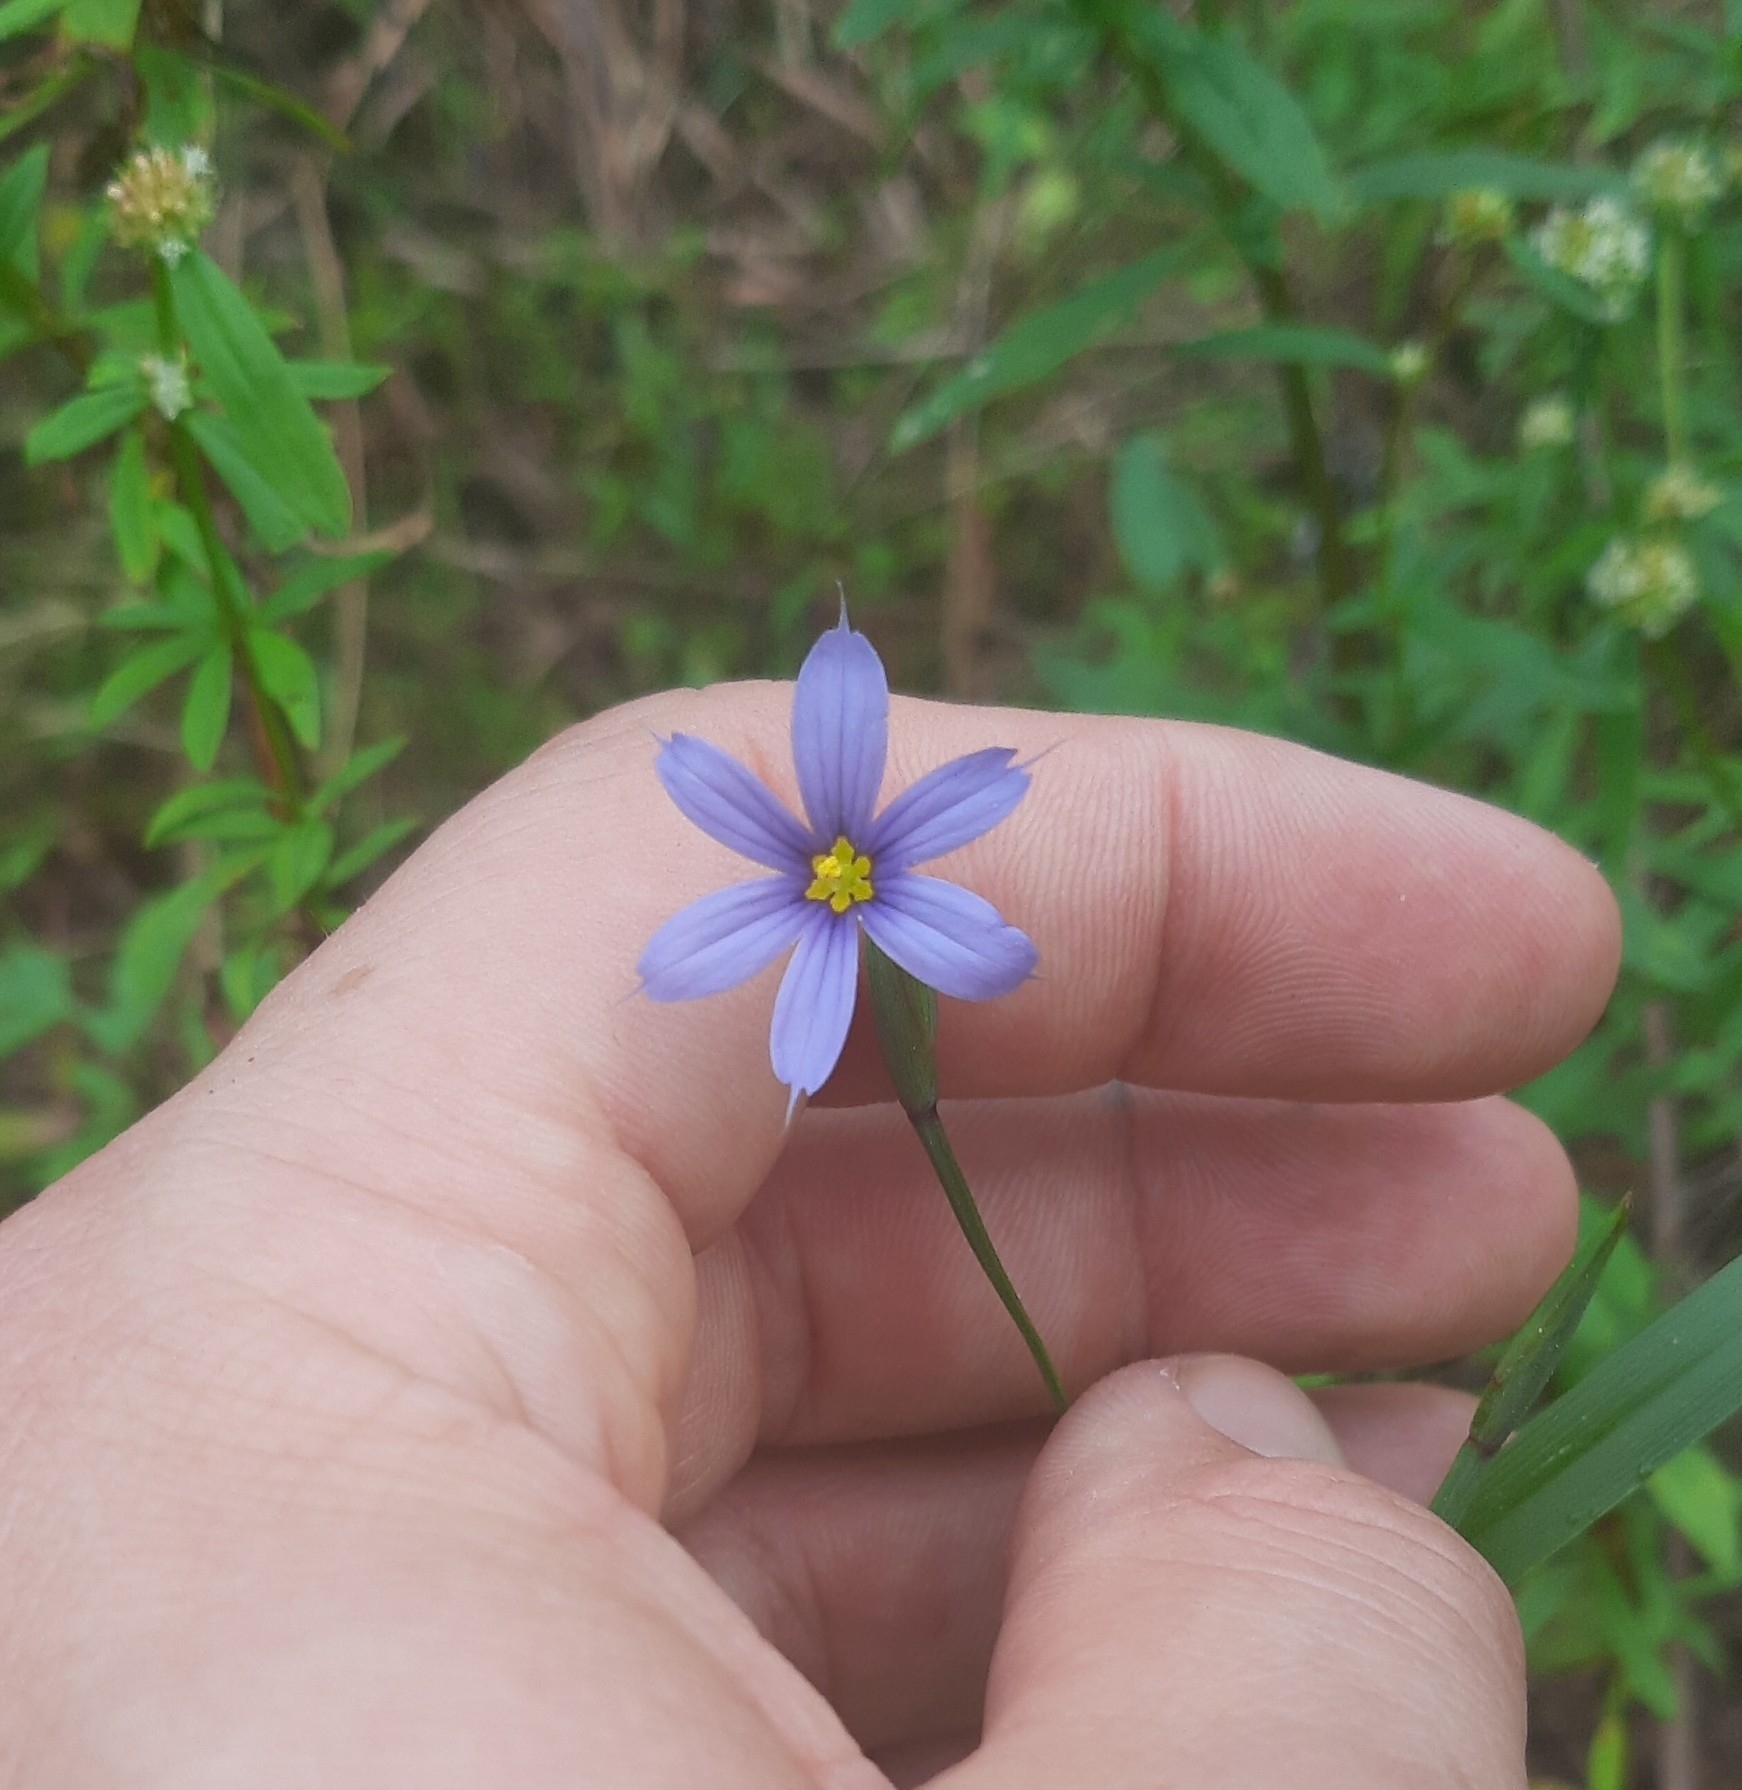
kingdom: Plantae
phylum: Tracheophyta
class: Liliopsida
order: Asparagales
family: Iridaceae
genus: Sisyrinchium
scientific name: Sisyrinchium angustifolium
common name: Narrow-leaf blue-eyed-grass
